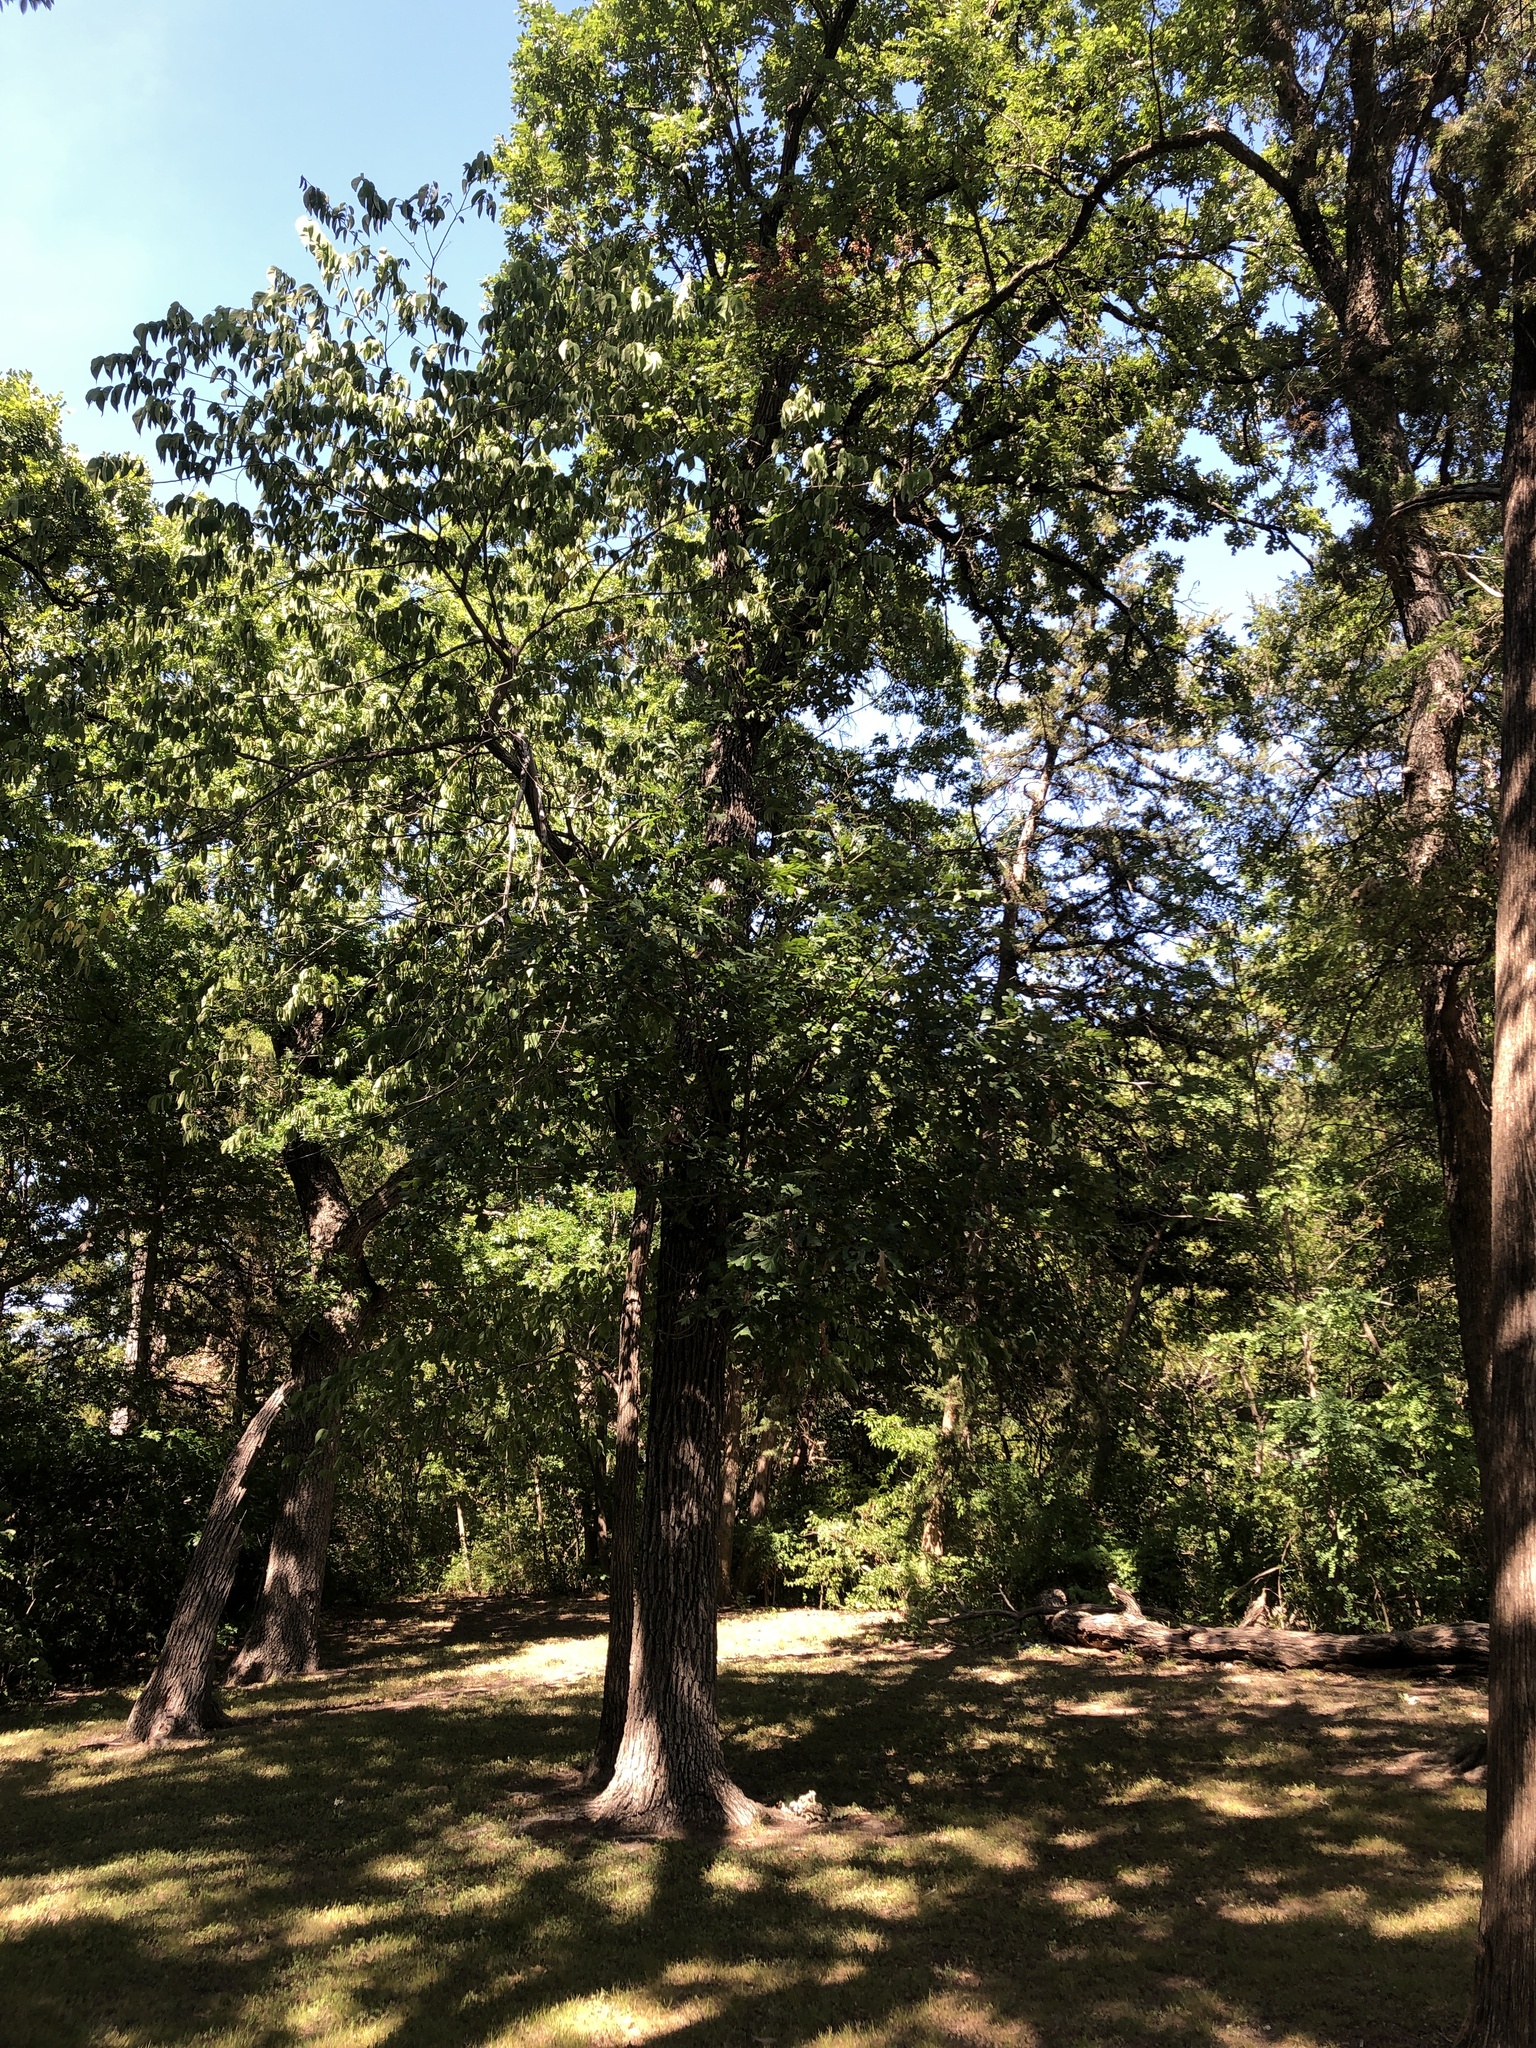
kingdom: Plantae
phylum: Tracheophyta
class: Magnoliopsida
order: Fagales
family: Fagaceae
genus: Quercus
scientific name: Quercus macrocarpa
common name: Bur oak
